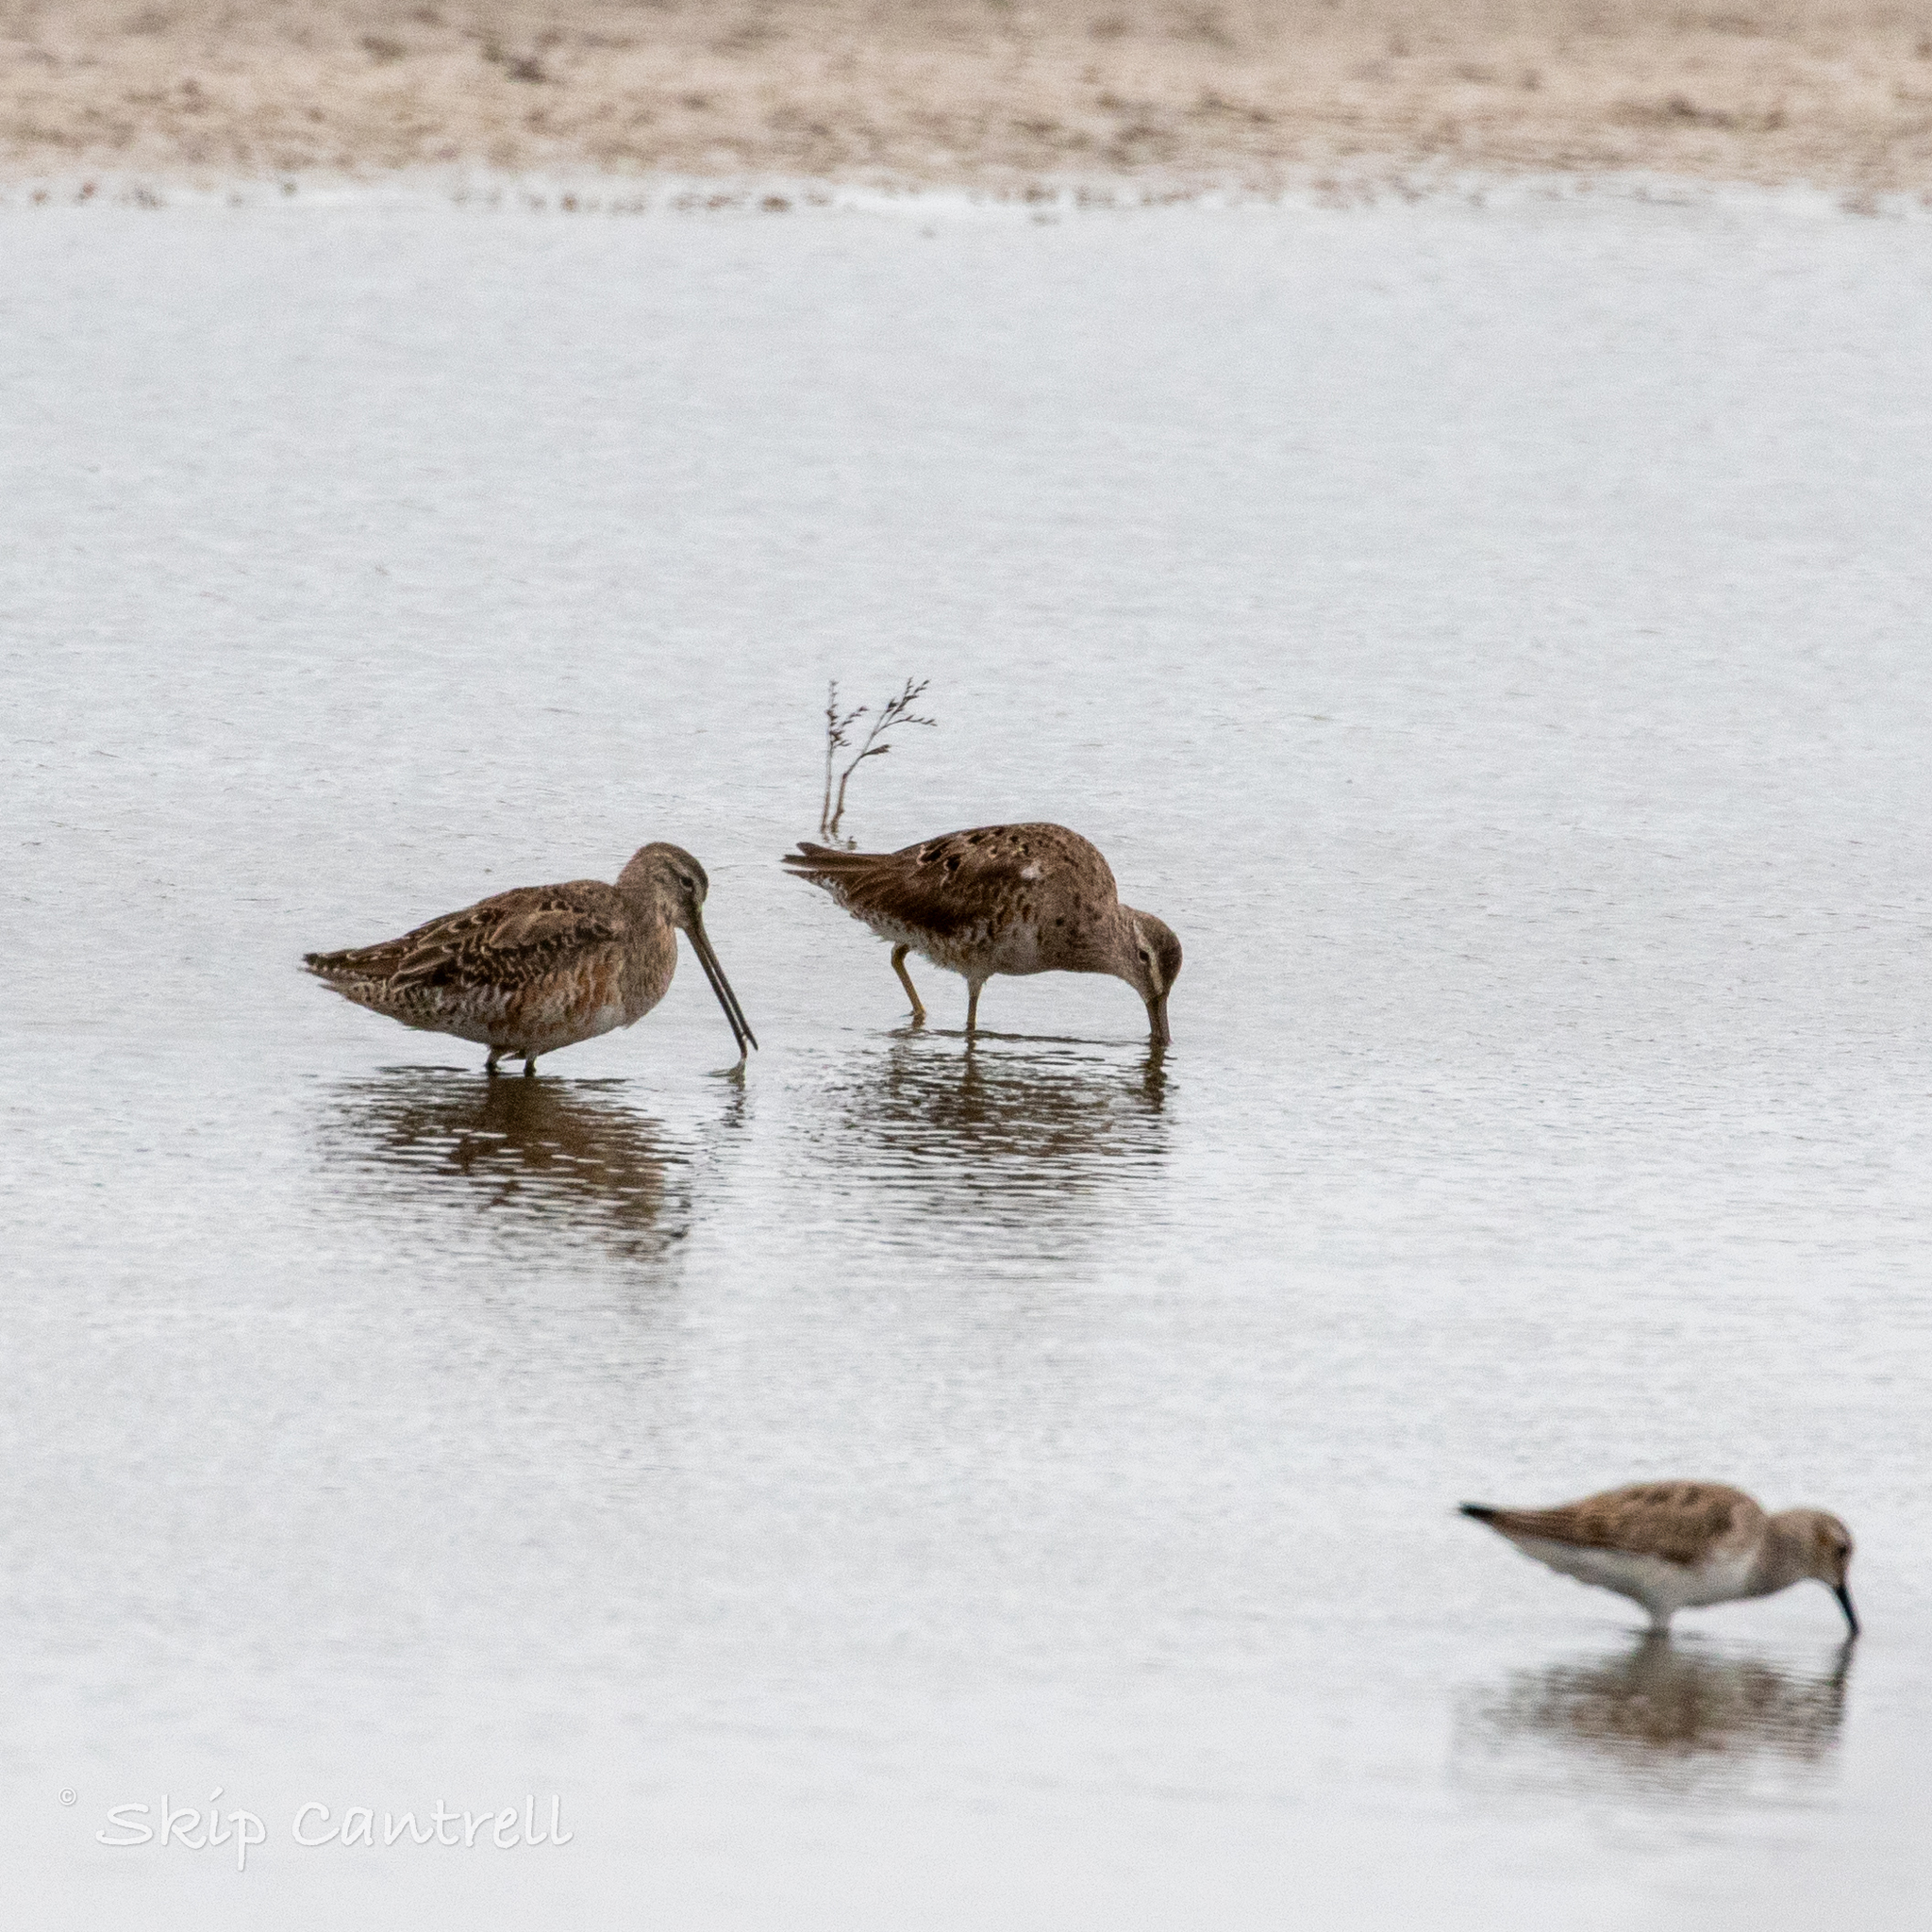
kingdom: Animalia
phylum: Chordata
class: Aves
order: Charadriiformes
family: Scolopacidae
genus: Limnodromus
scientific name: Limnodromus scolopaceus
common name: Long-billed dowitcher
